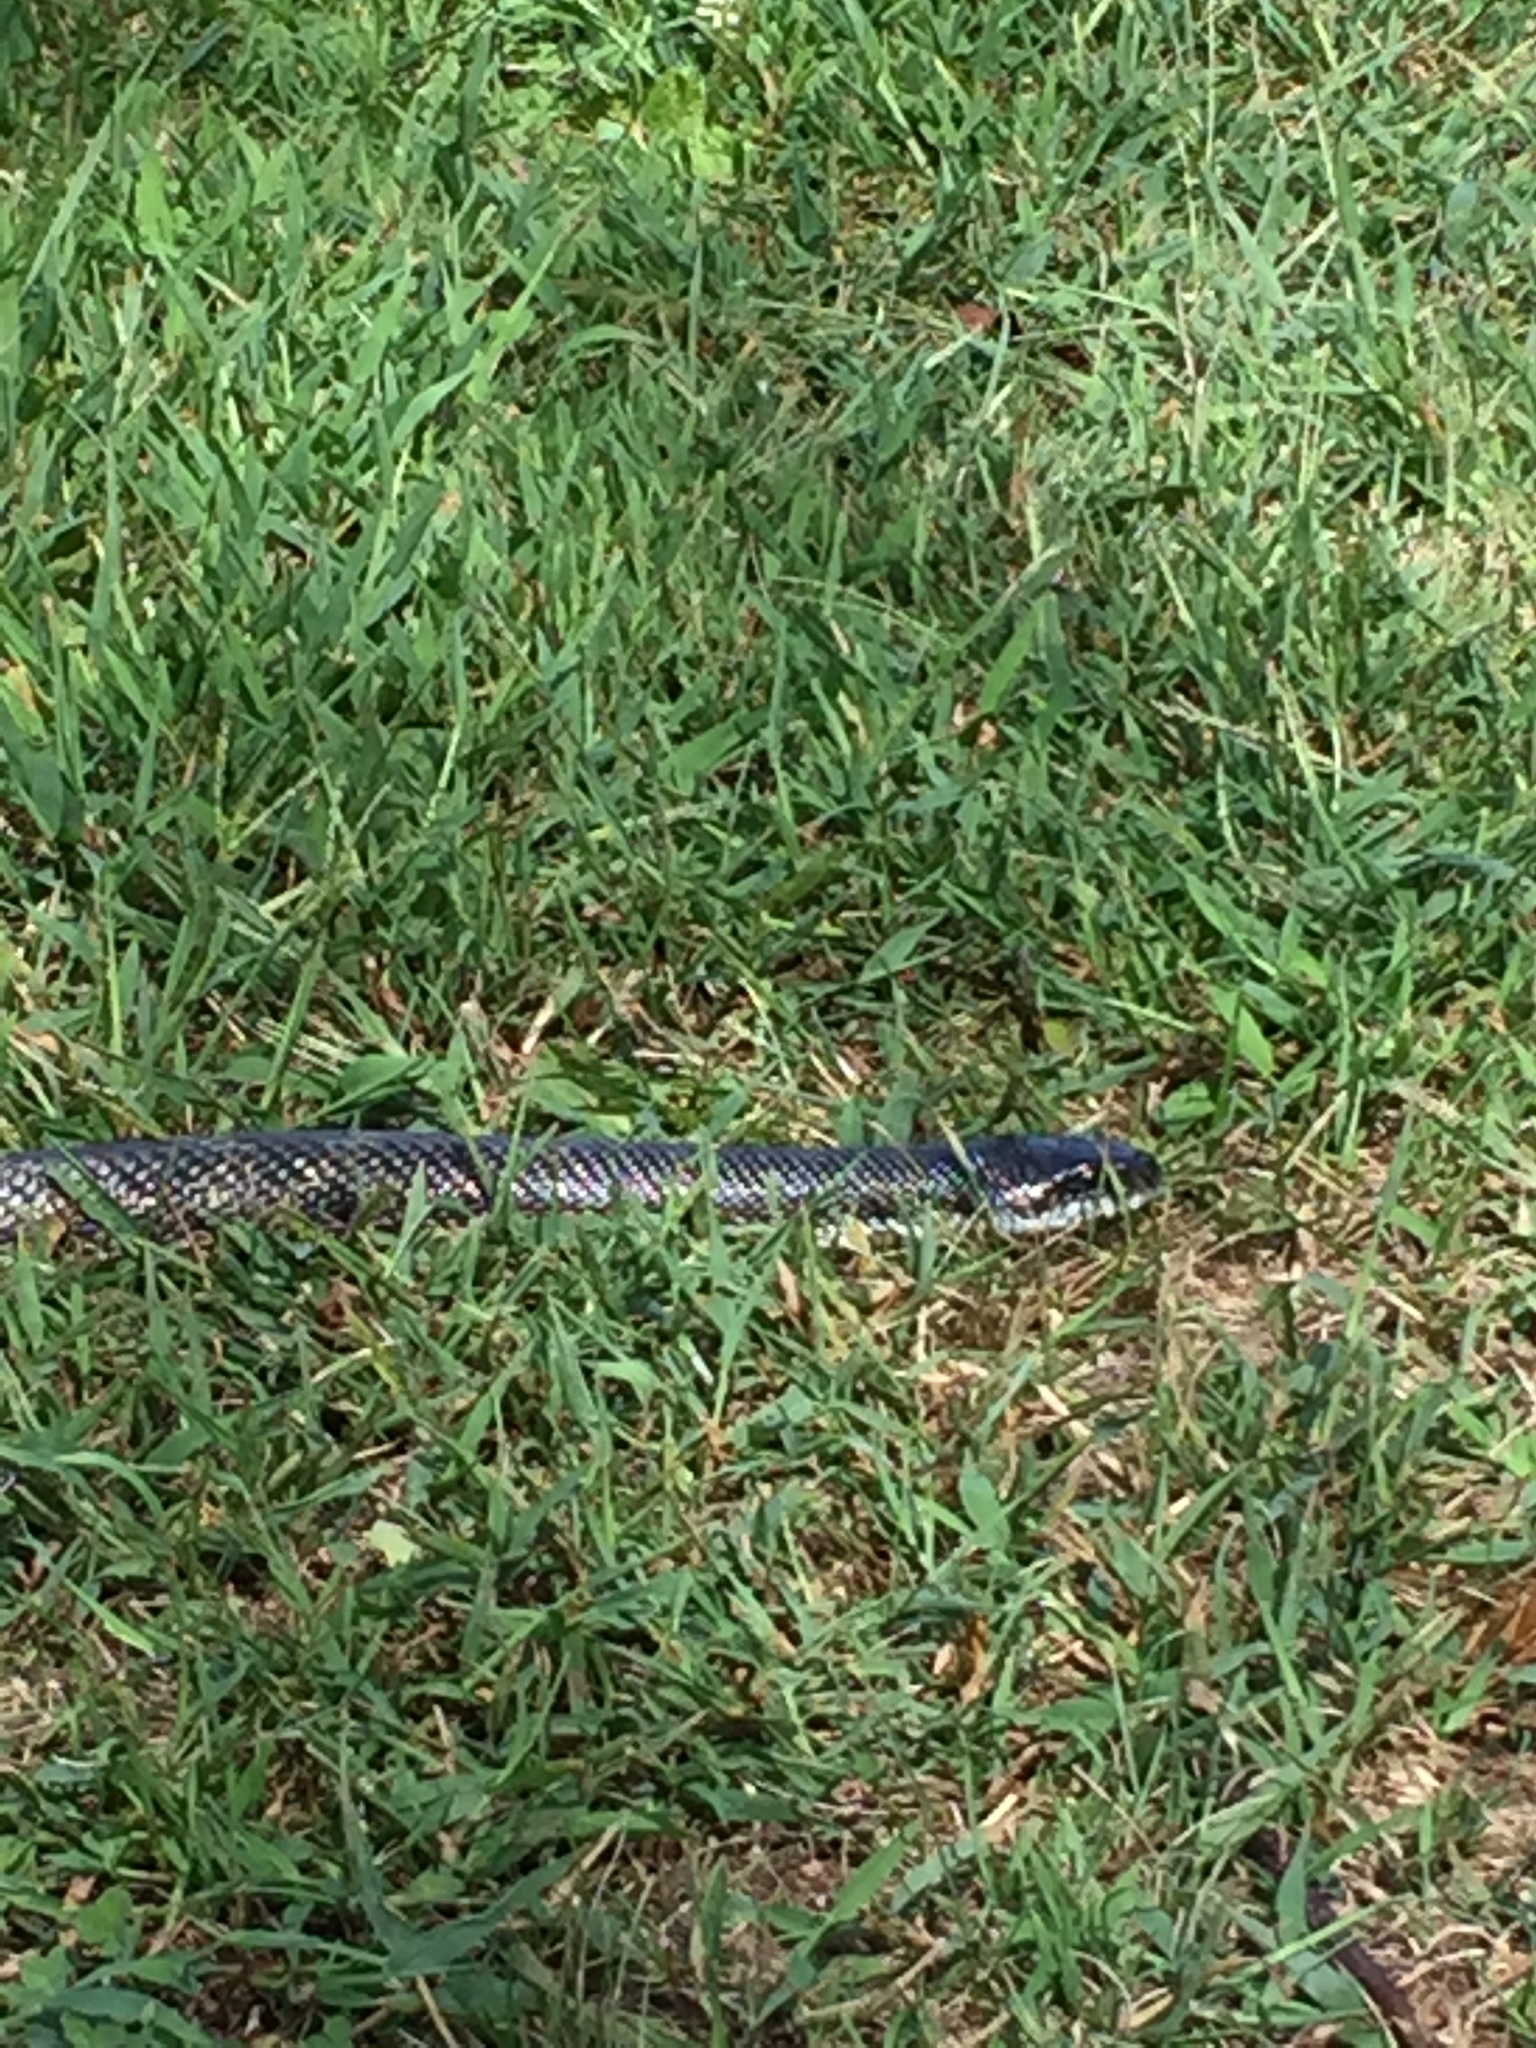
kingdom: Animalia
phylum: Chordata
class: Squamata
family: Colubridae
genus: Pantherophis
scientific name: Pantherophis spiloides
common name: Gray rat snake
